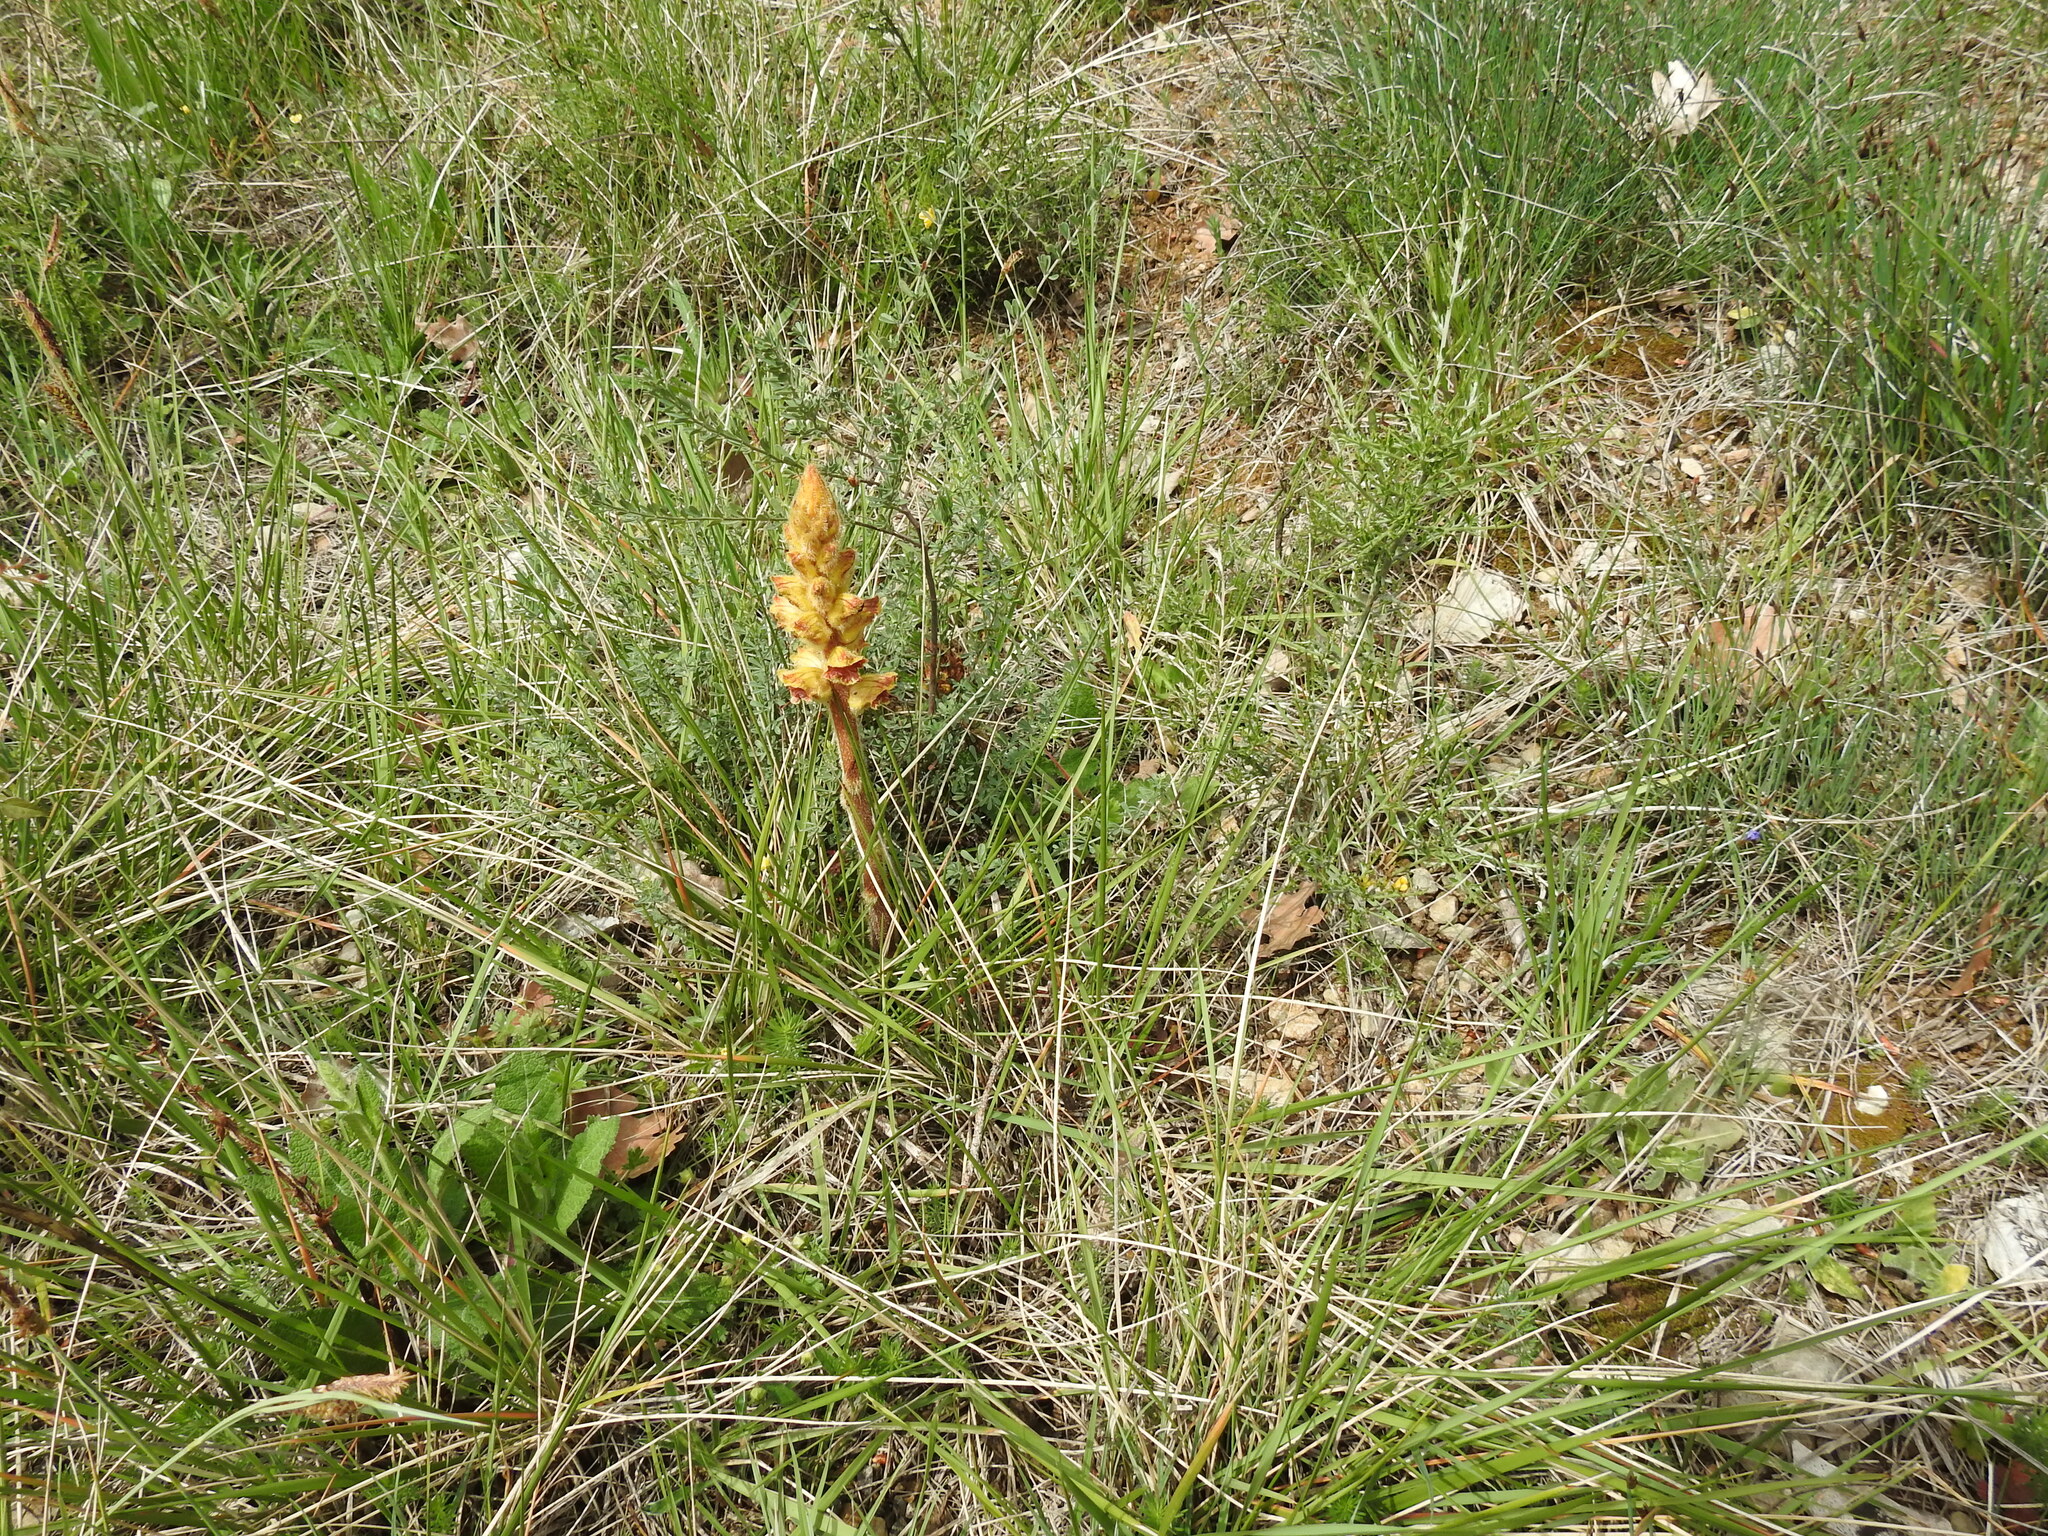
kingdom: Plantae
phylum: Tracheophyta
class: Magnoliopsida
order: Lamiales
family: Orobanchaceae
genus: Orobanche
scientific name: Orobanche gracilis
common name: Slender broomrape
